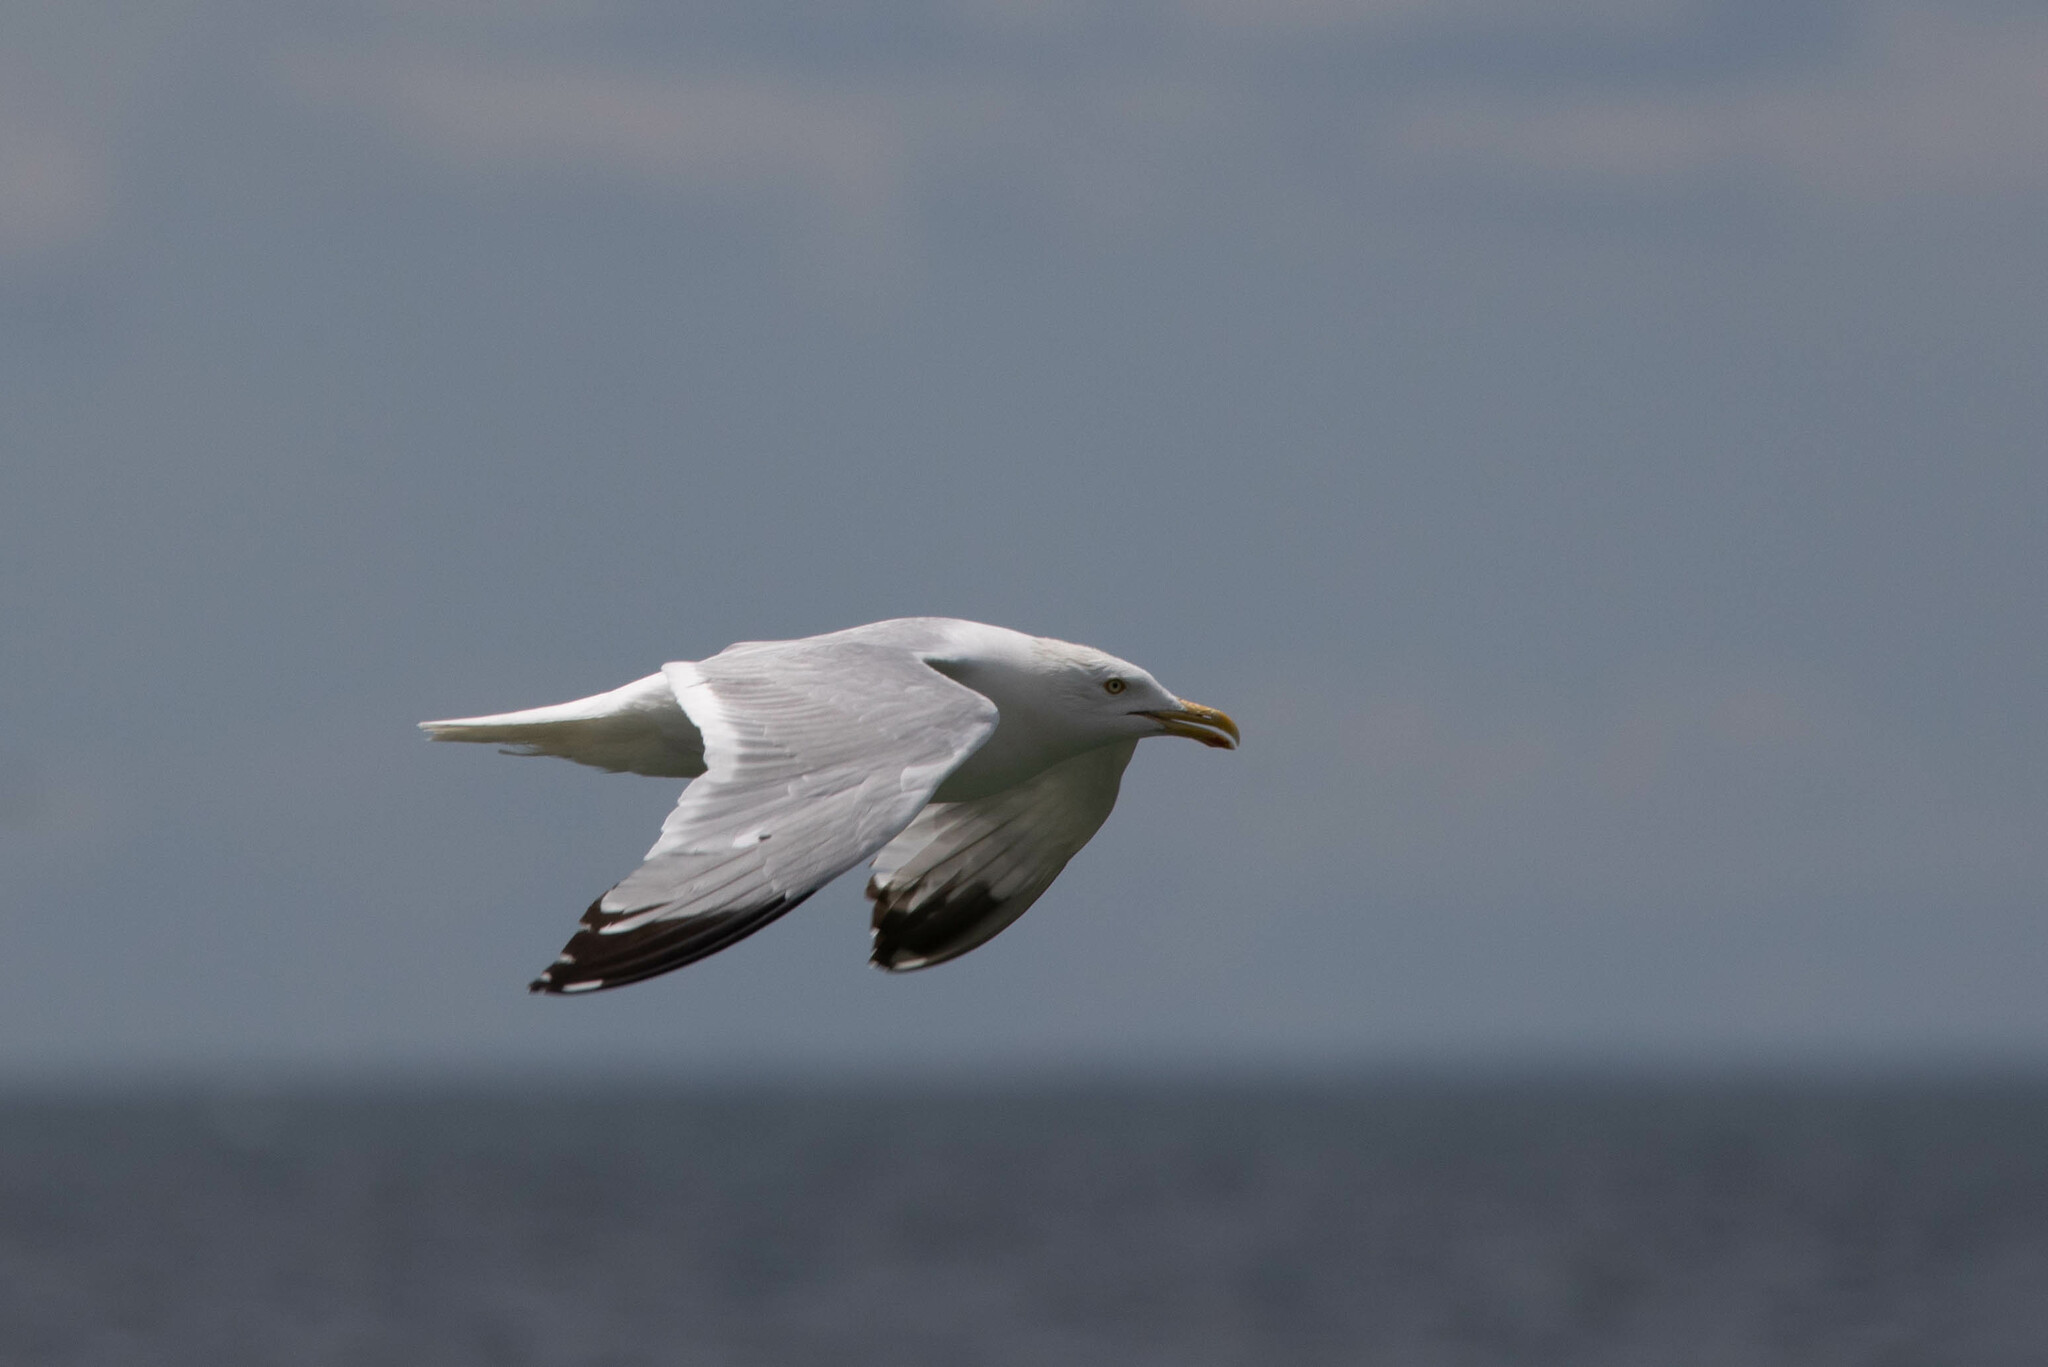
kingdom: Animalia
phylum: Chordata
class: Aves
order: Charadriiformes
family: Laridae
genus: Larus
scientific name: Larus argentatus
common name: Herring gull
